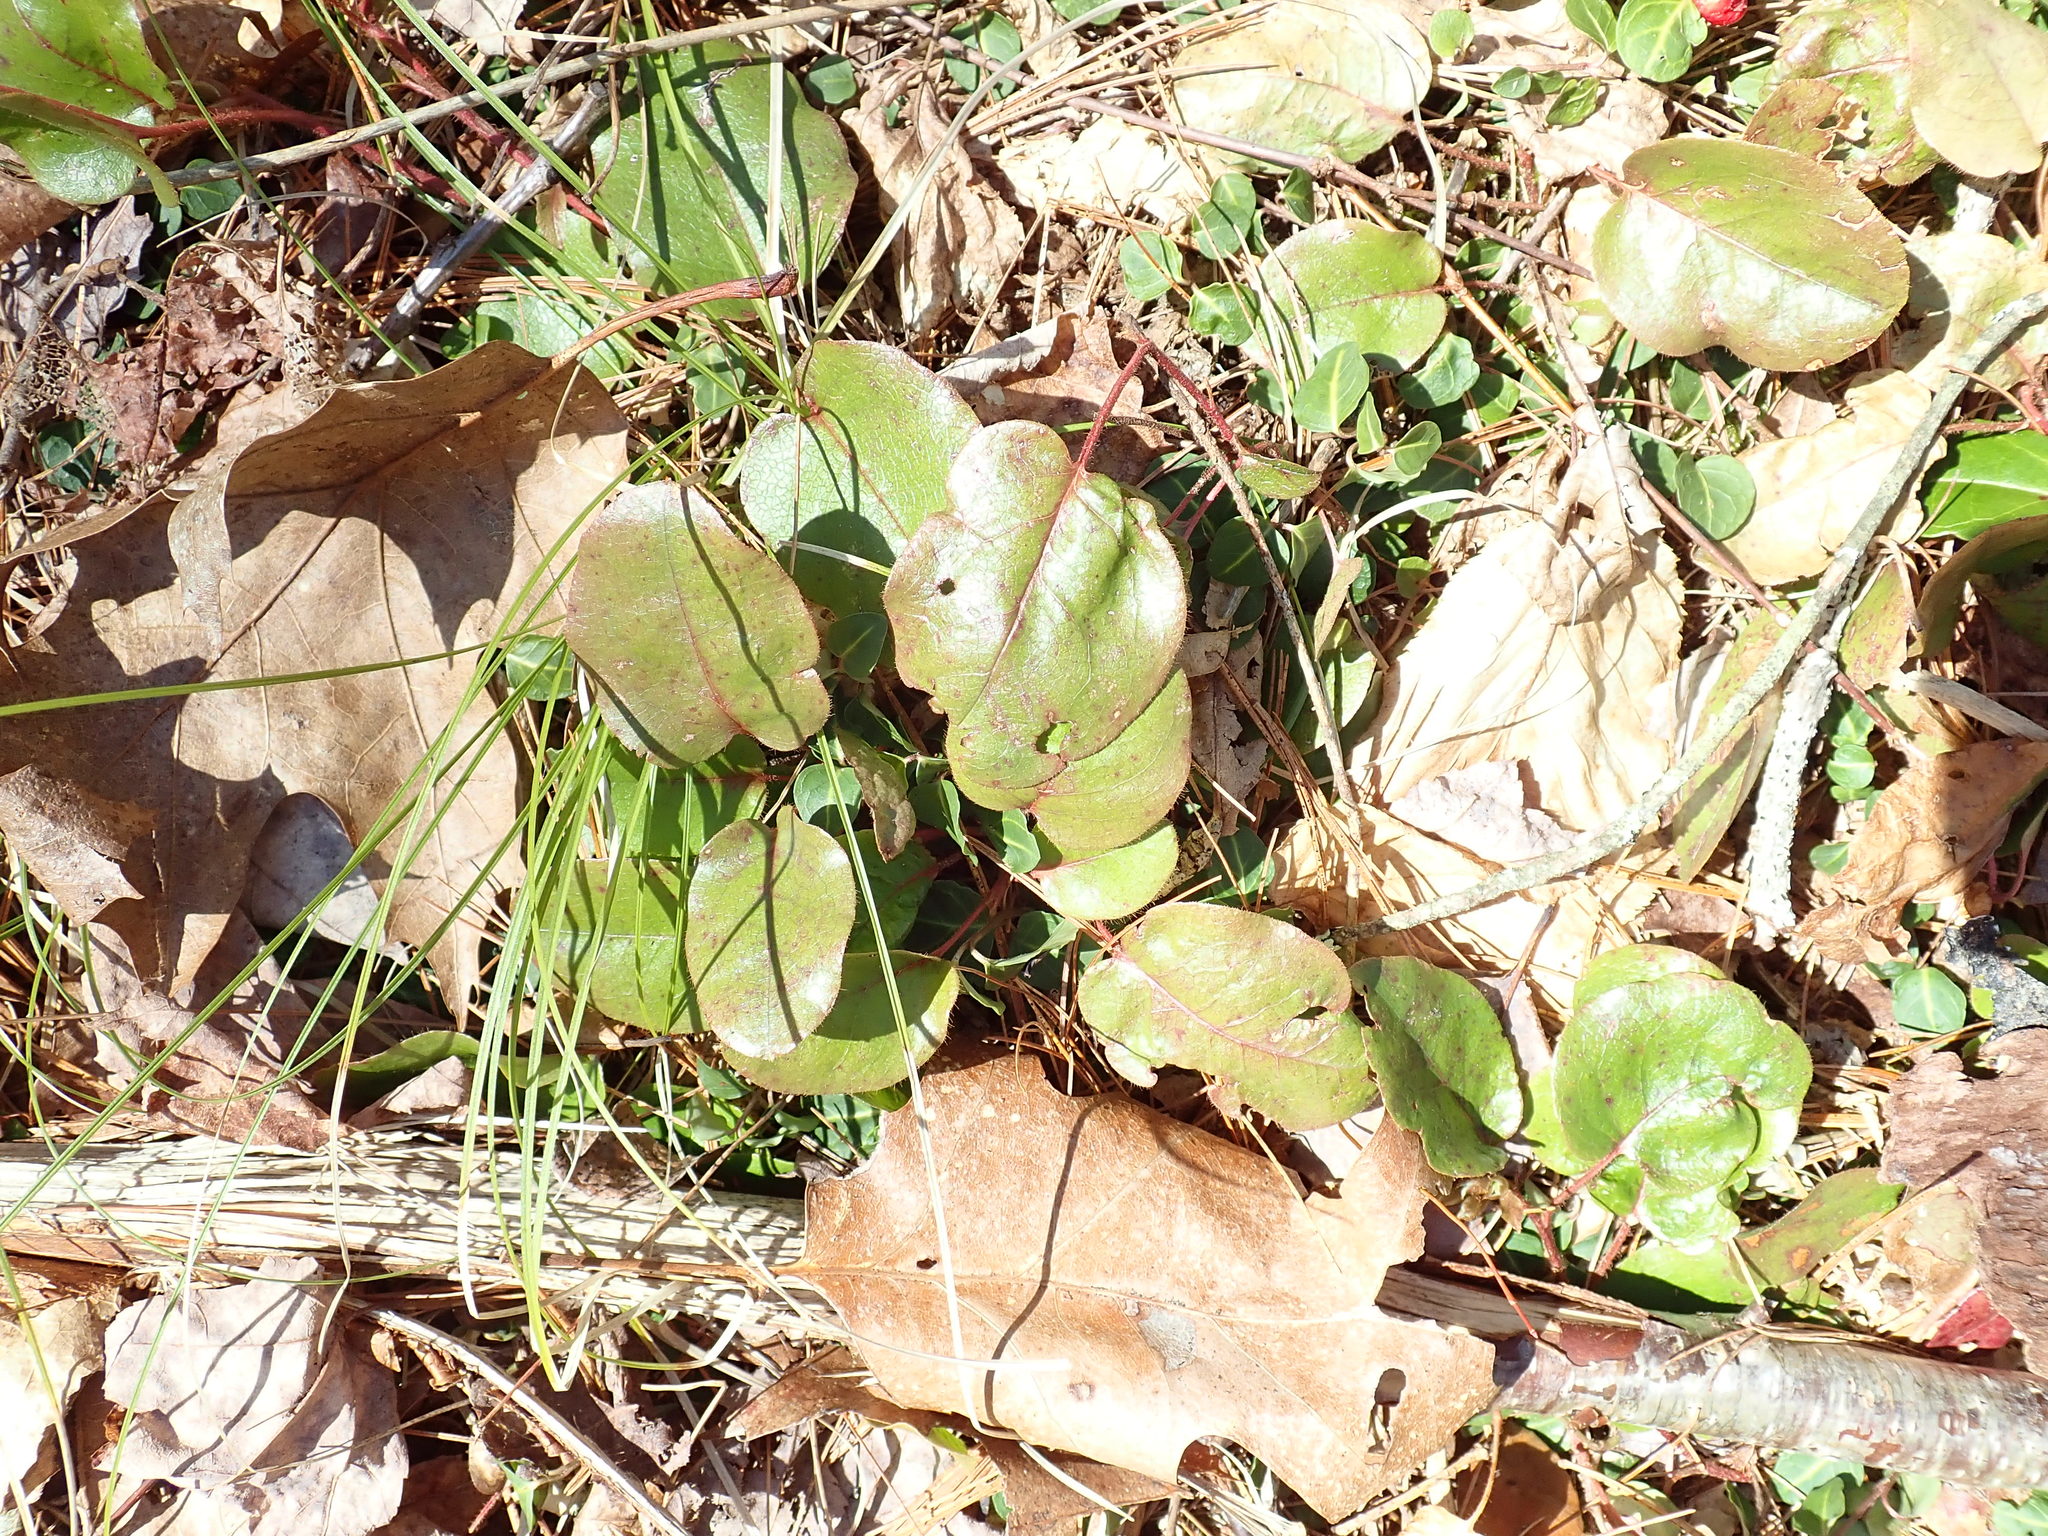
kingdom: Plantae
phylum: Tracheophyta
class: Magnoliopsida
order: Ericales
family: Ericaceae
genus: Epigaea
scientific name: Epigaea repens
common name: Gravelroot
